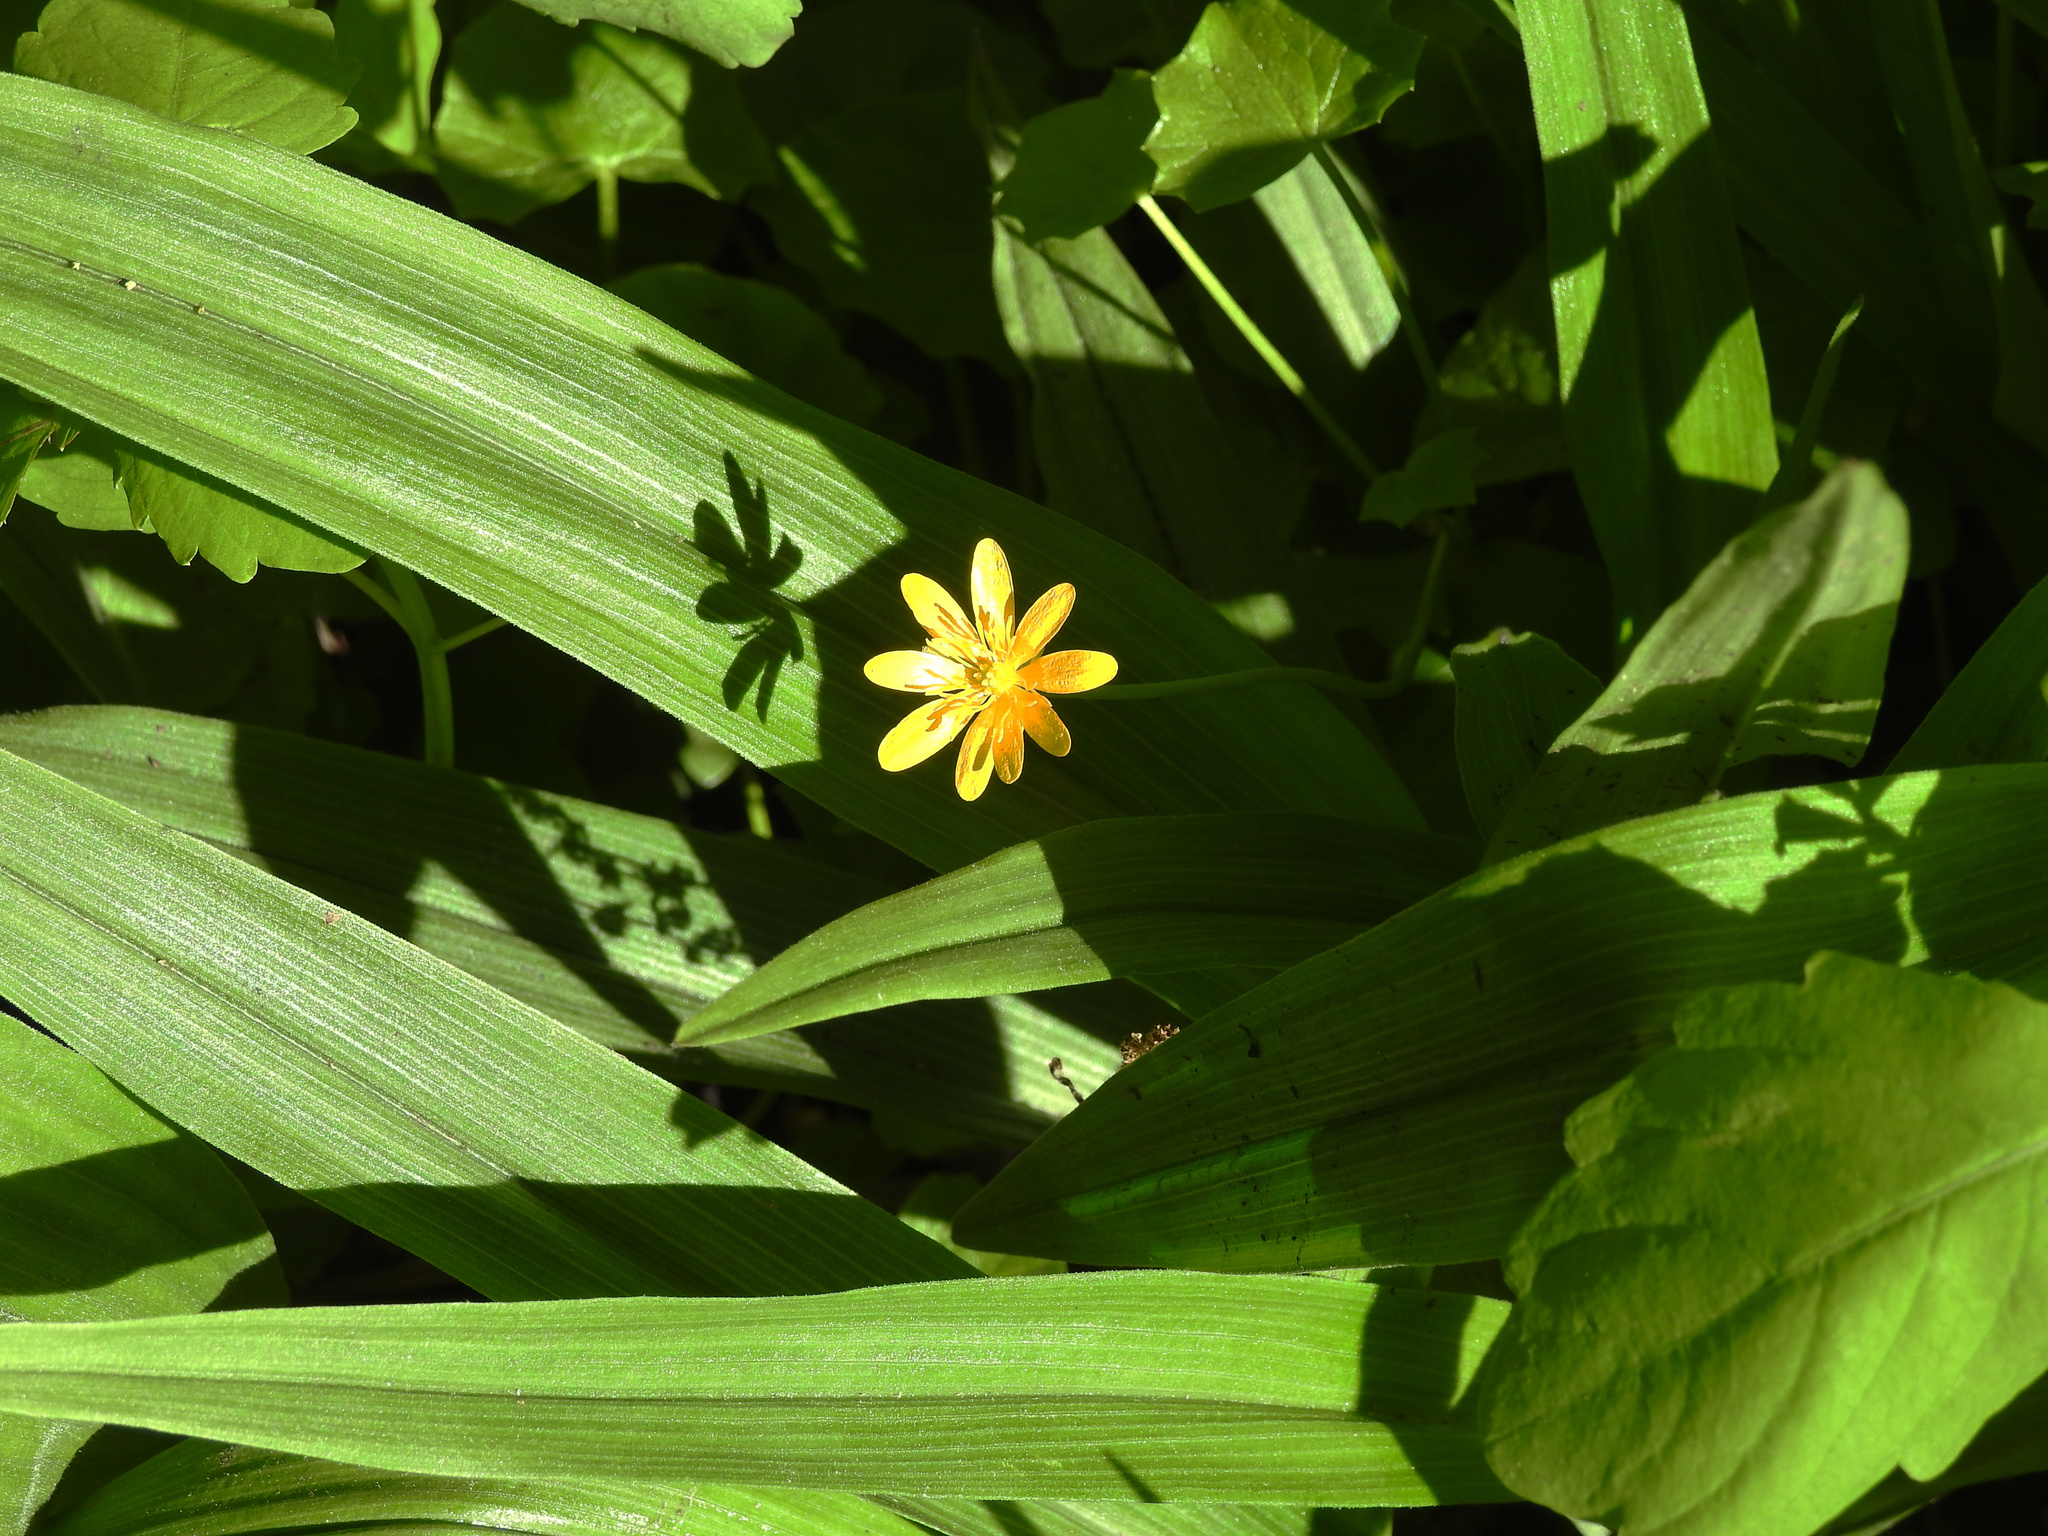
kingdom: Plantae
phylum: Tracheophyta
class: Magnoliopsida
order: Ranunculales
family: Ranunculaceae
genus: Ficaria
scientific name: Ficaria verna
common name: Lesser celandine
